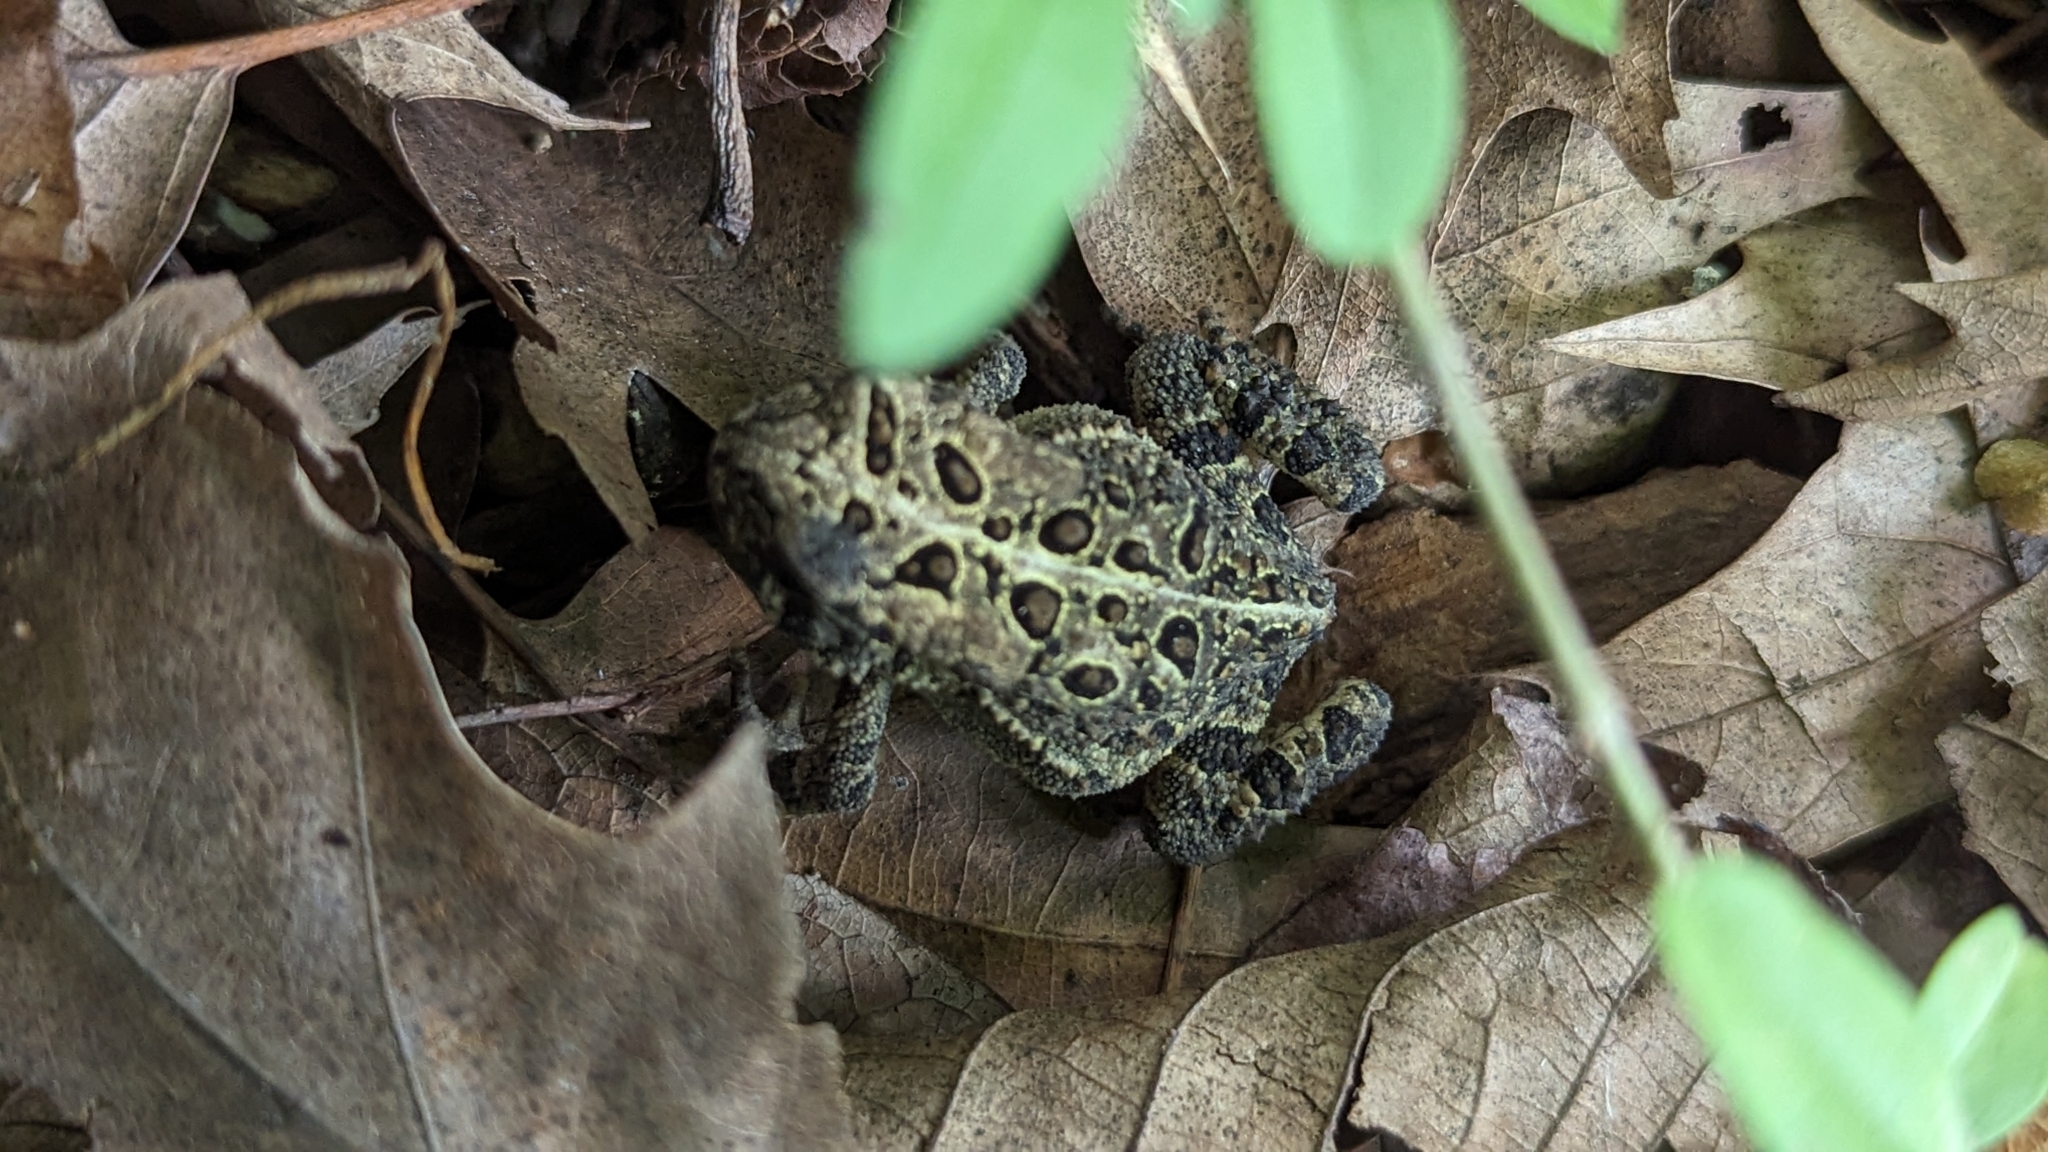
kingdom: Animalia
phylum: Chordata
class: Amphibia
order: Anura
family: Bufonidae
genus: Anaxyrus
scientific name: Anaxyrus americanus
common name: American toad
